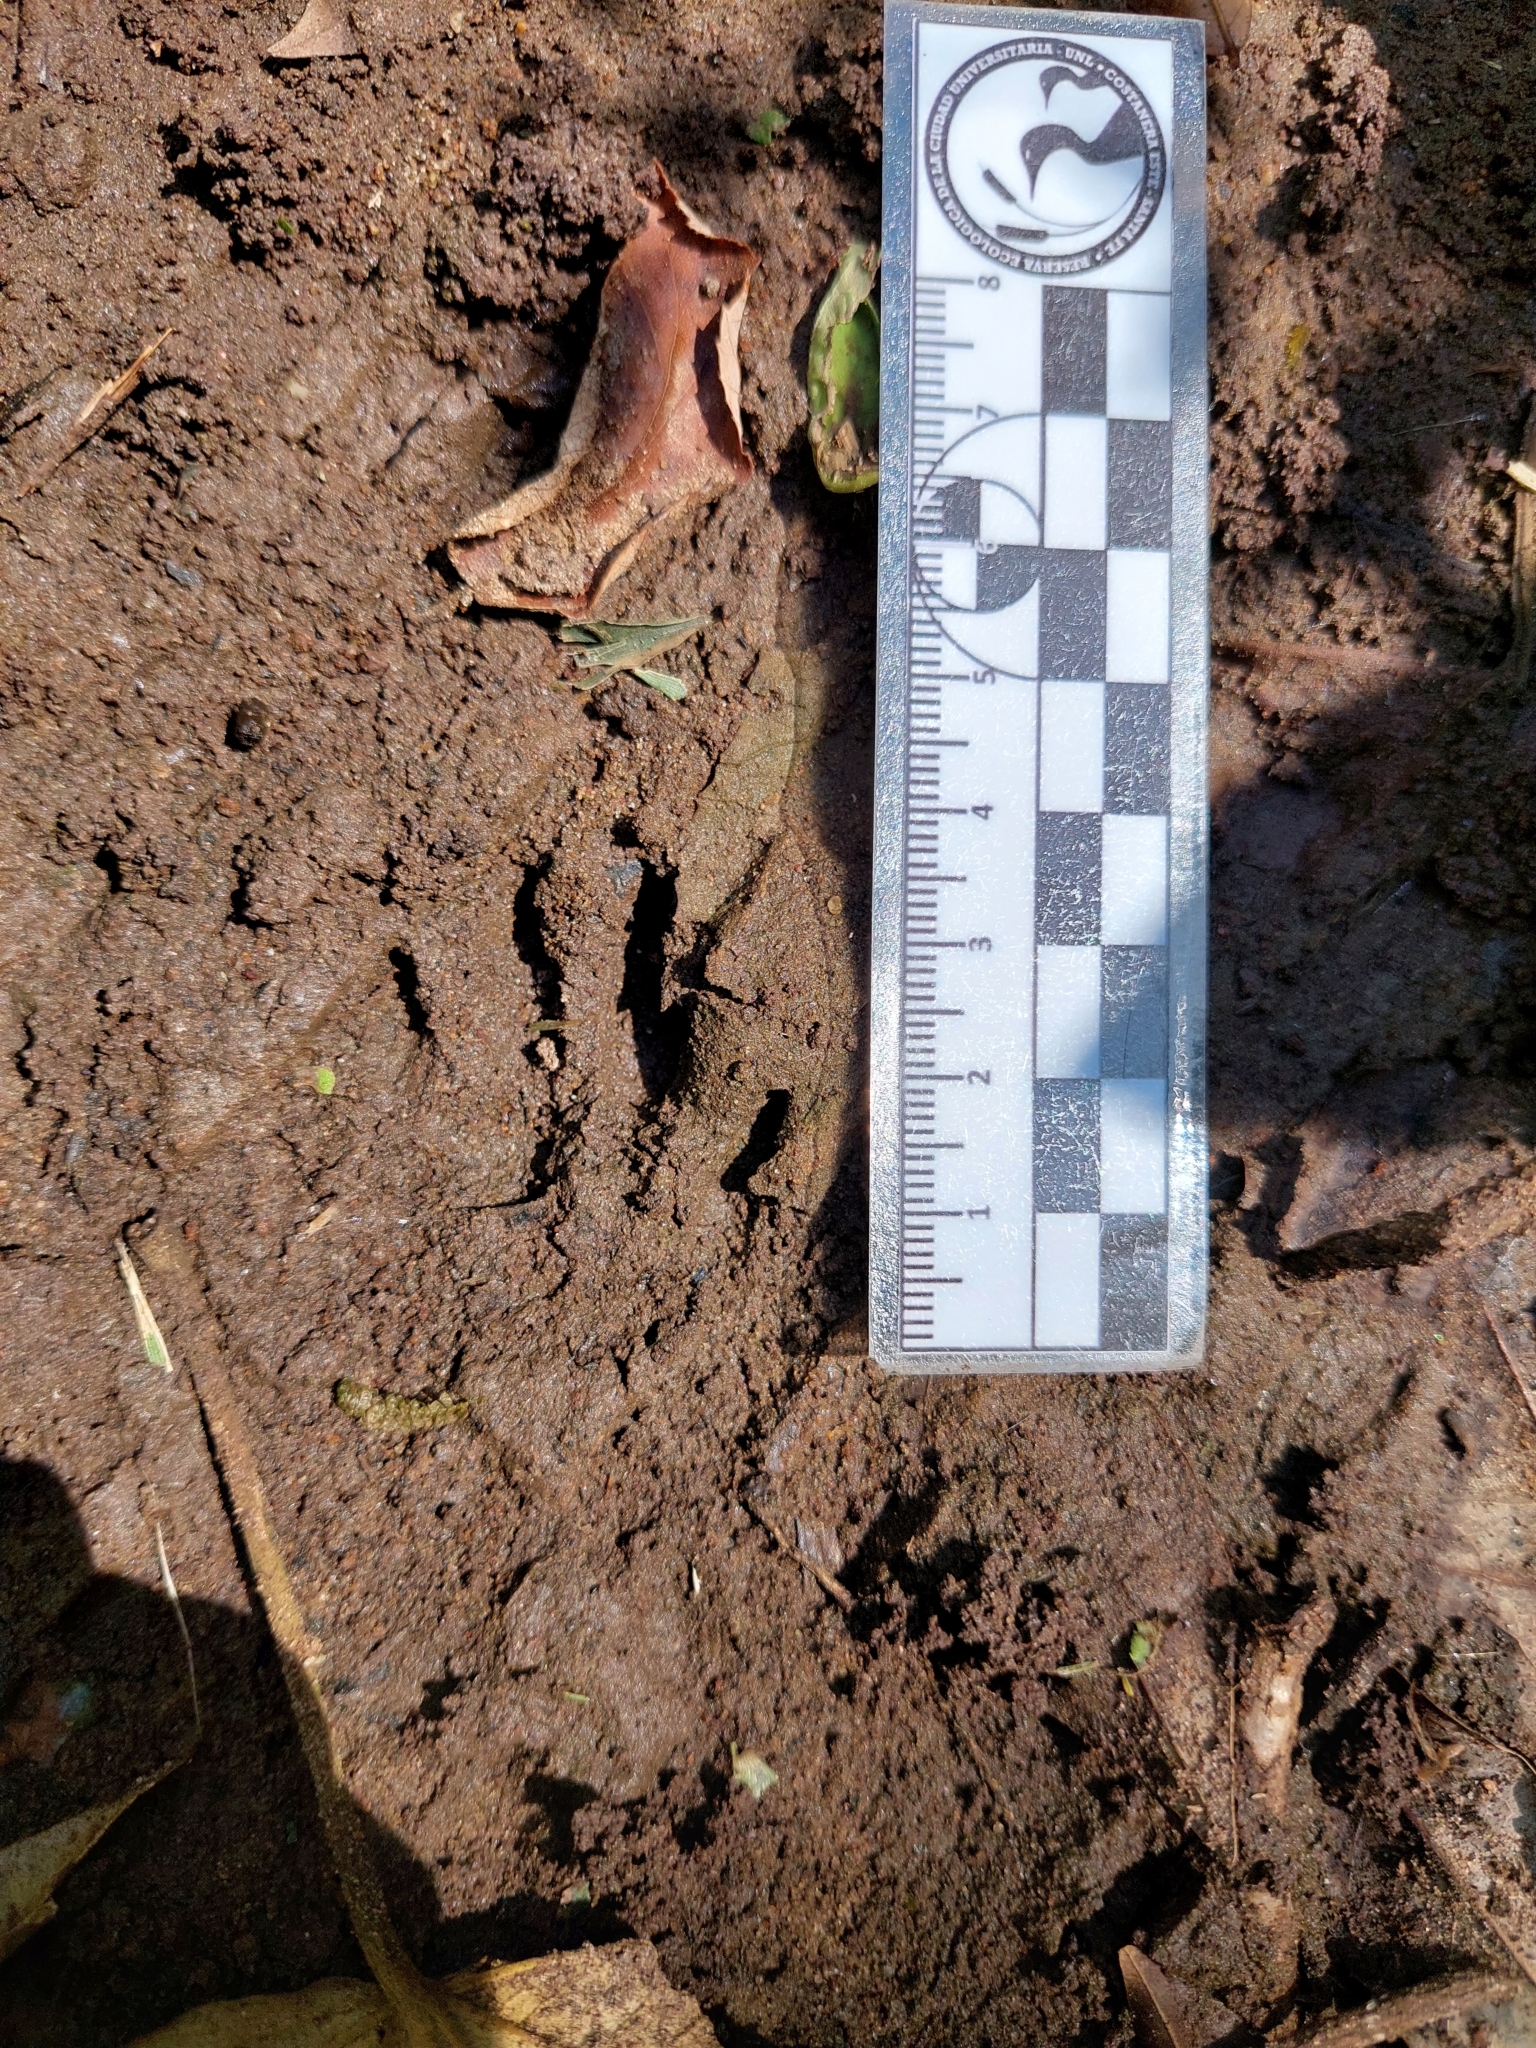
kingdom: Animalia
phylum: Chordata
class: Mammalia
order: Carnivora
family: Procyonidae
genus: Procyon
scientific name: Procyon cancrivorus
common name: Crab-eating raccoon
